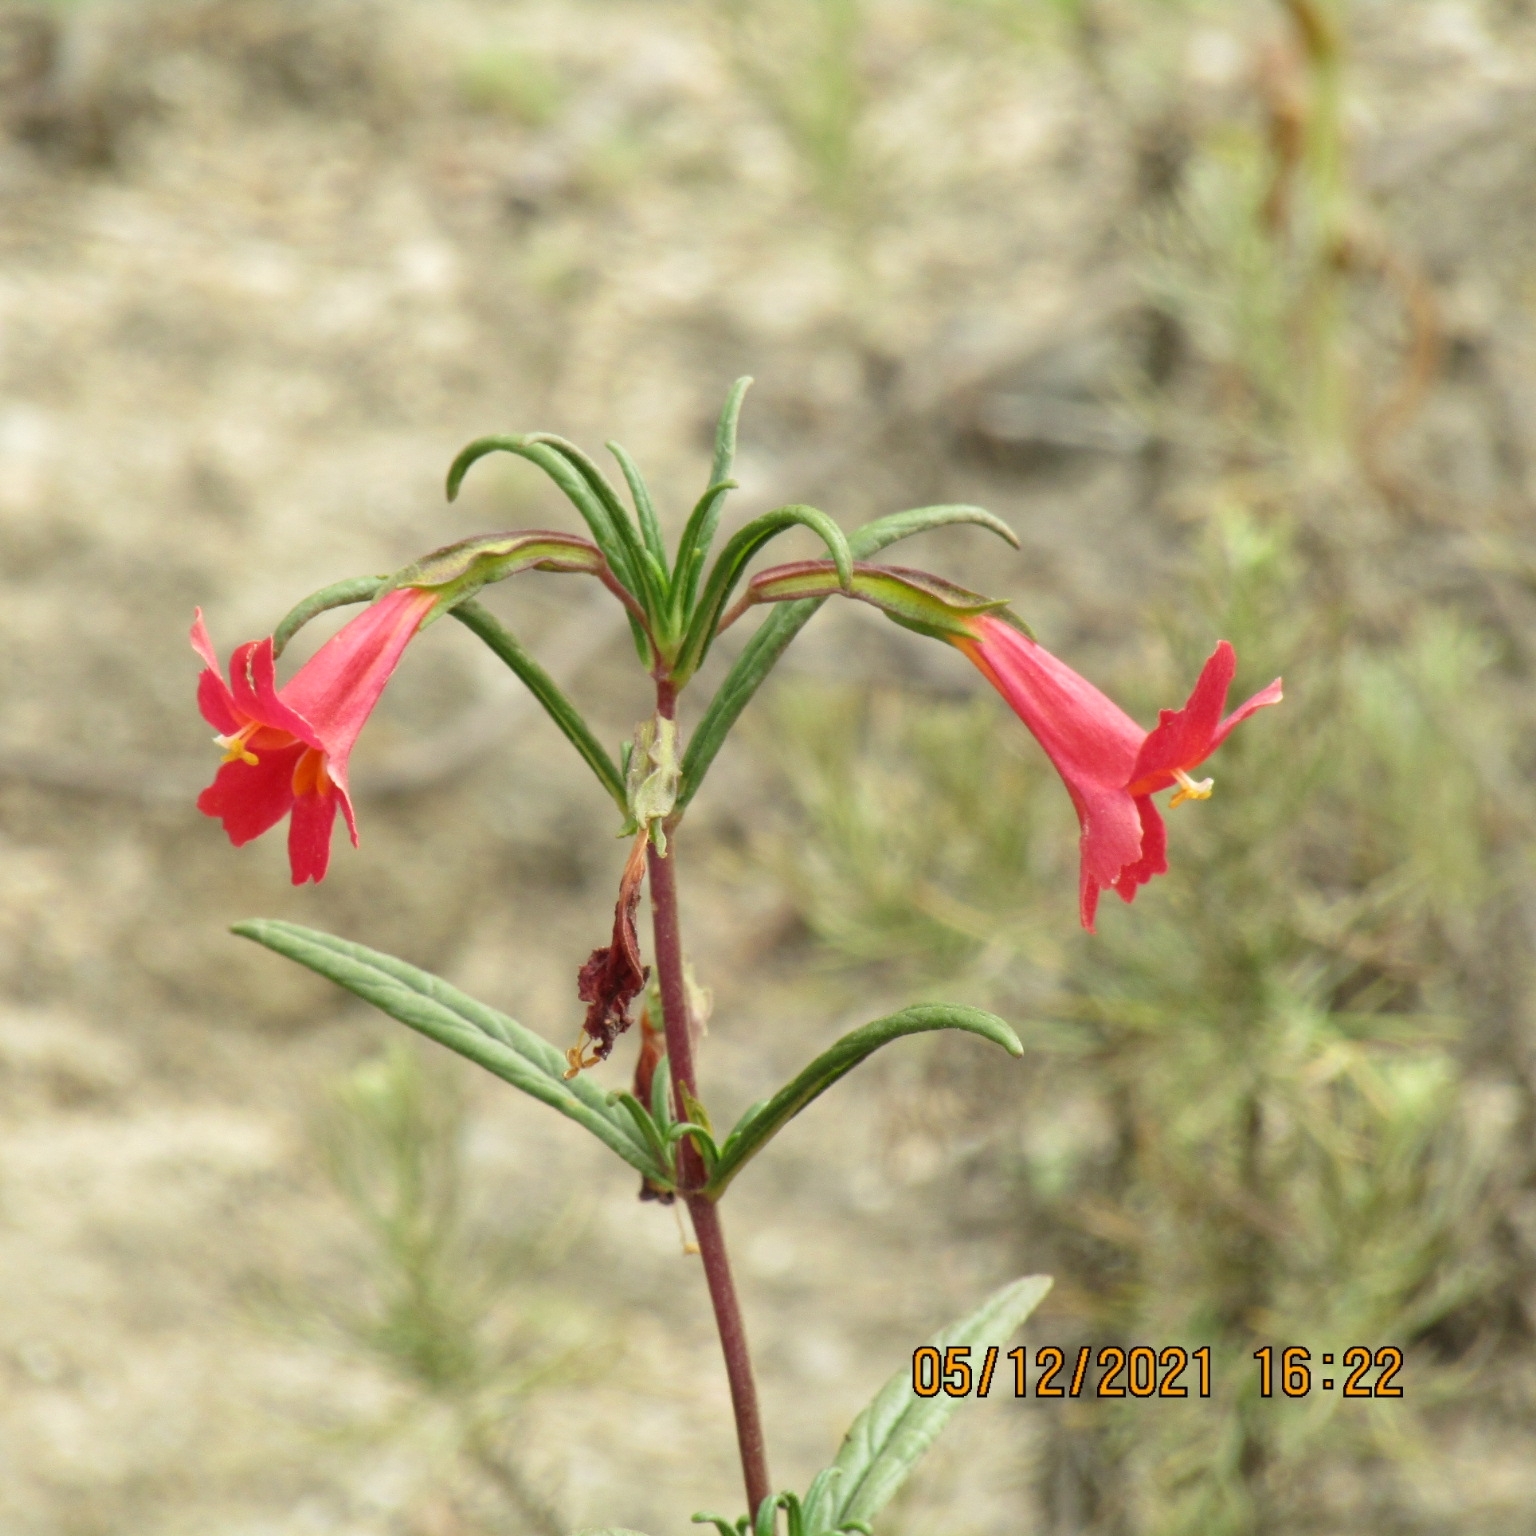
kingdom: Plantae
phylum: Tracheophyta
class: Magnoliopsida
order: Lamiales
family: Phrymaceae
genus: Diplacus
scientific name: Diplacus puniceus
